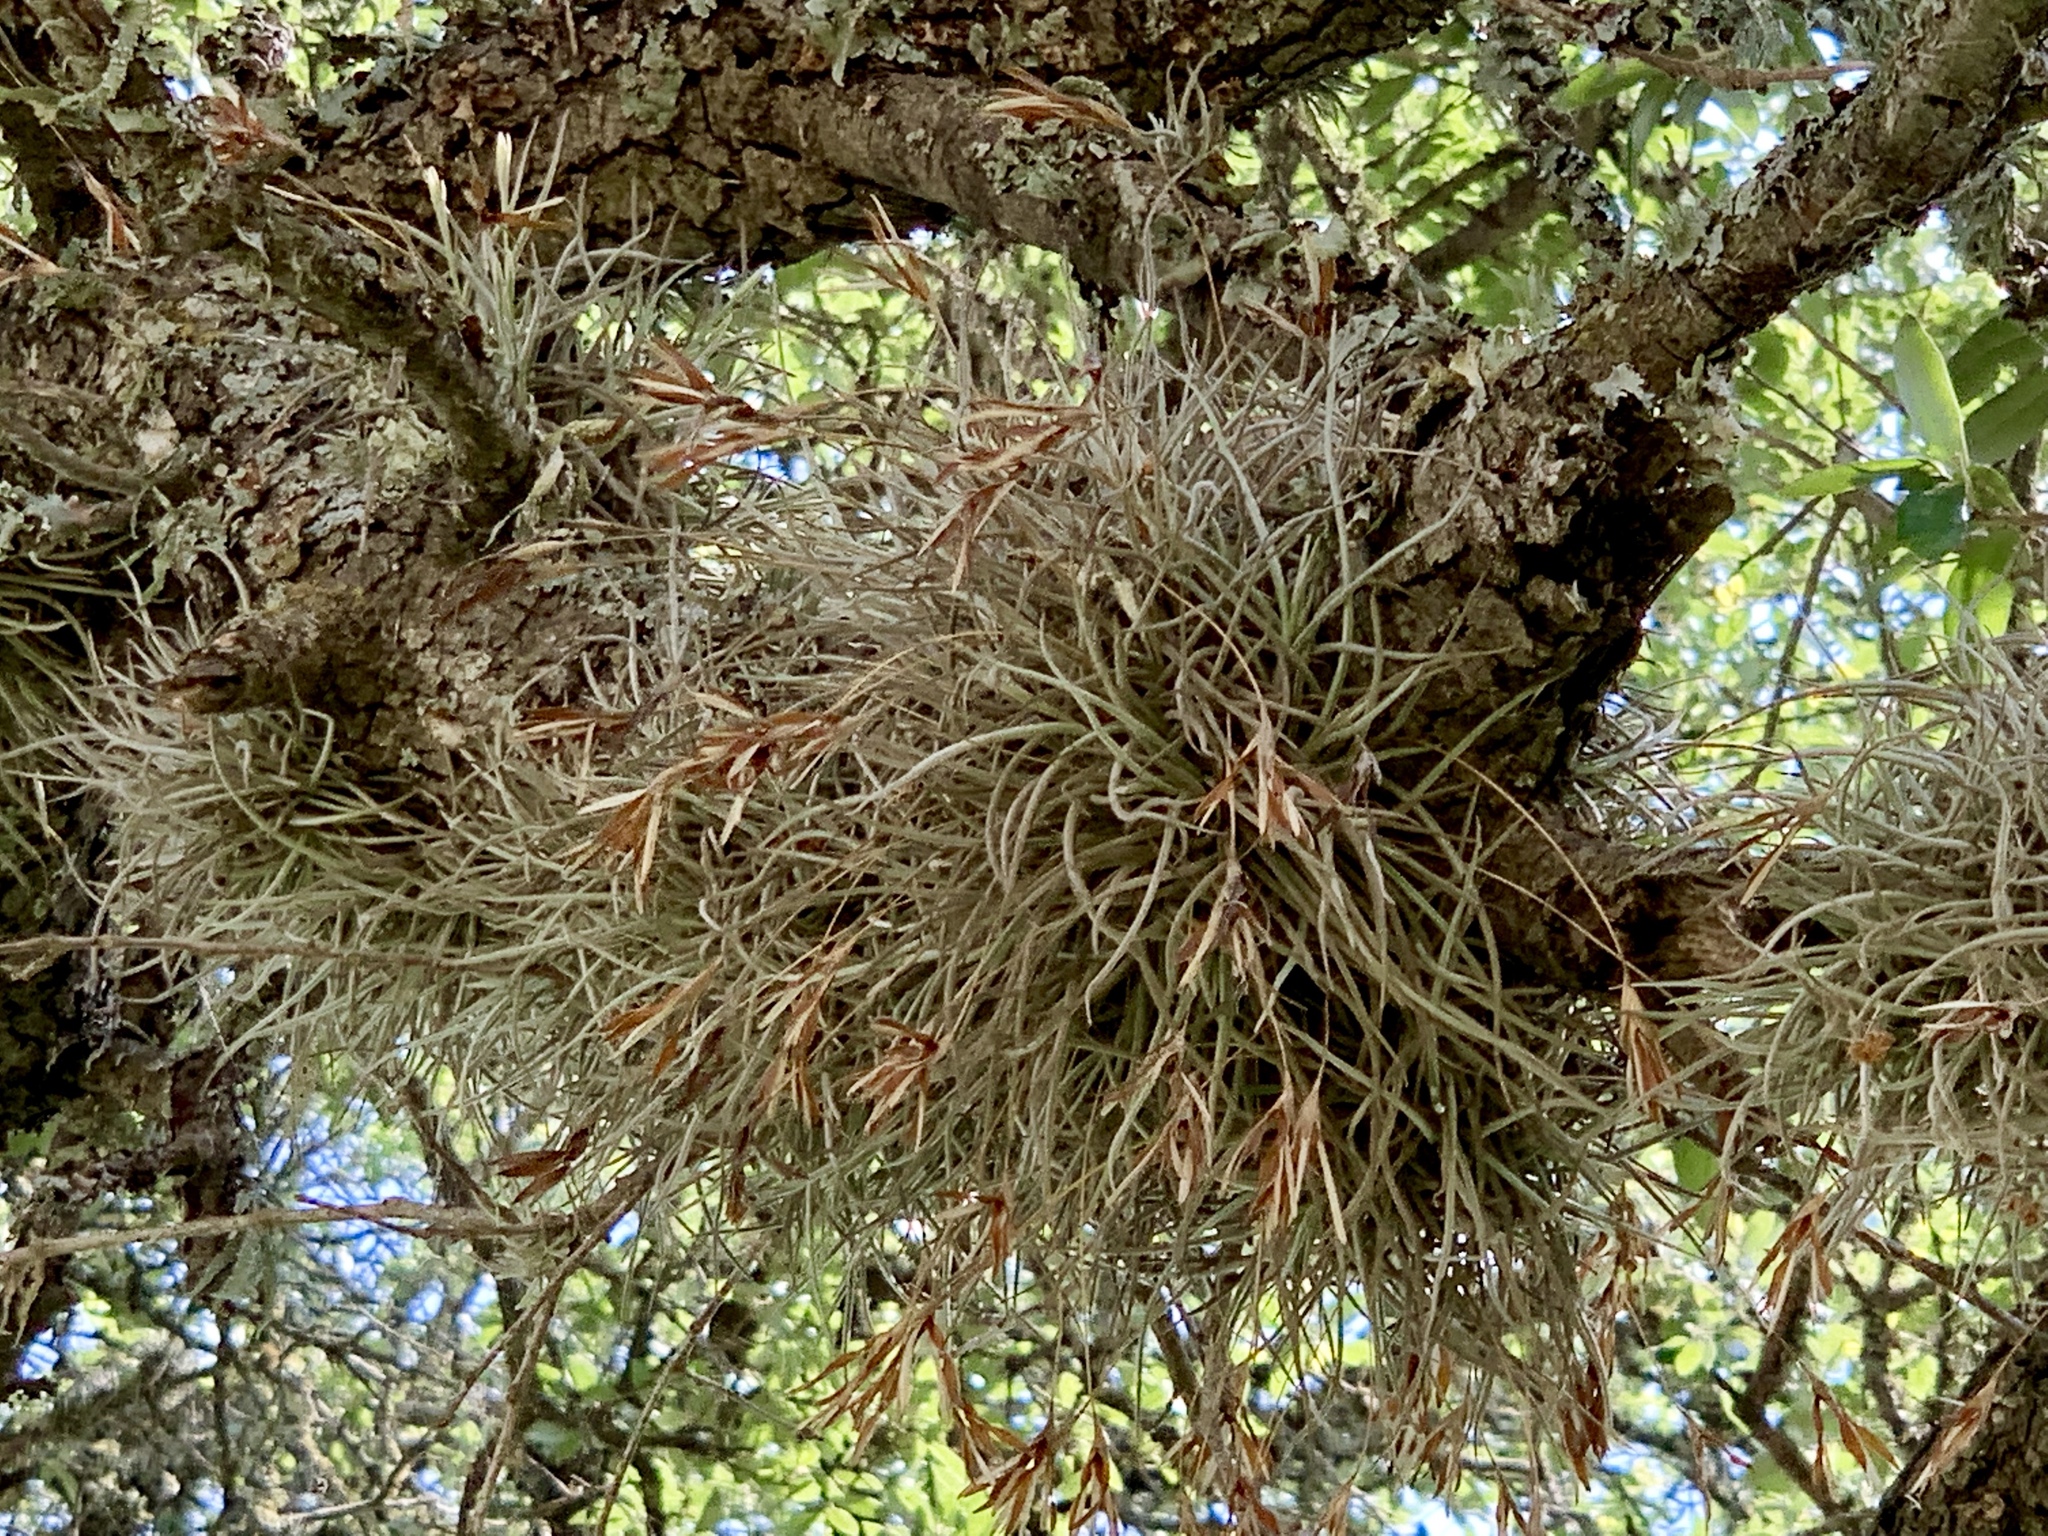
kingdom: Plantae
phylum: Tracheophyta
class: Liliopsida
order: Poales
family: Bromeliaceae
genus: Tillandsia
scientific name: Tillandsia recurvata
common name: Small ballmoss
